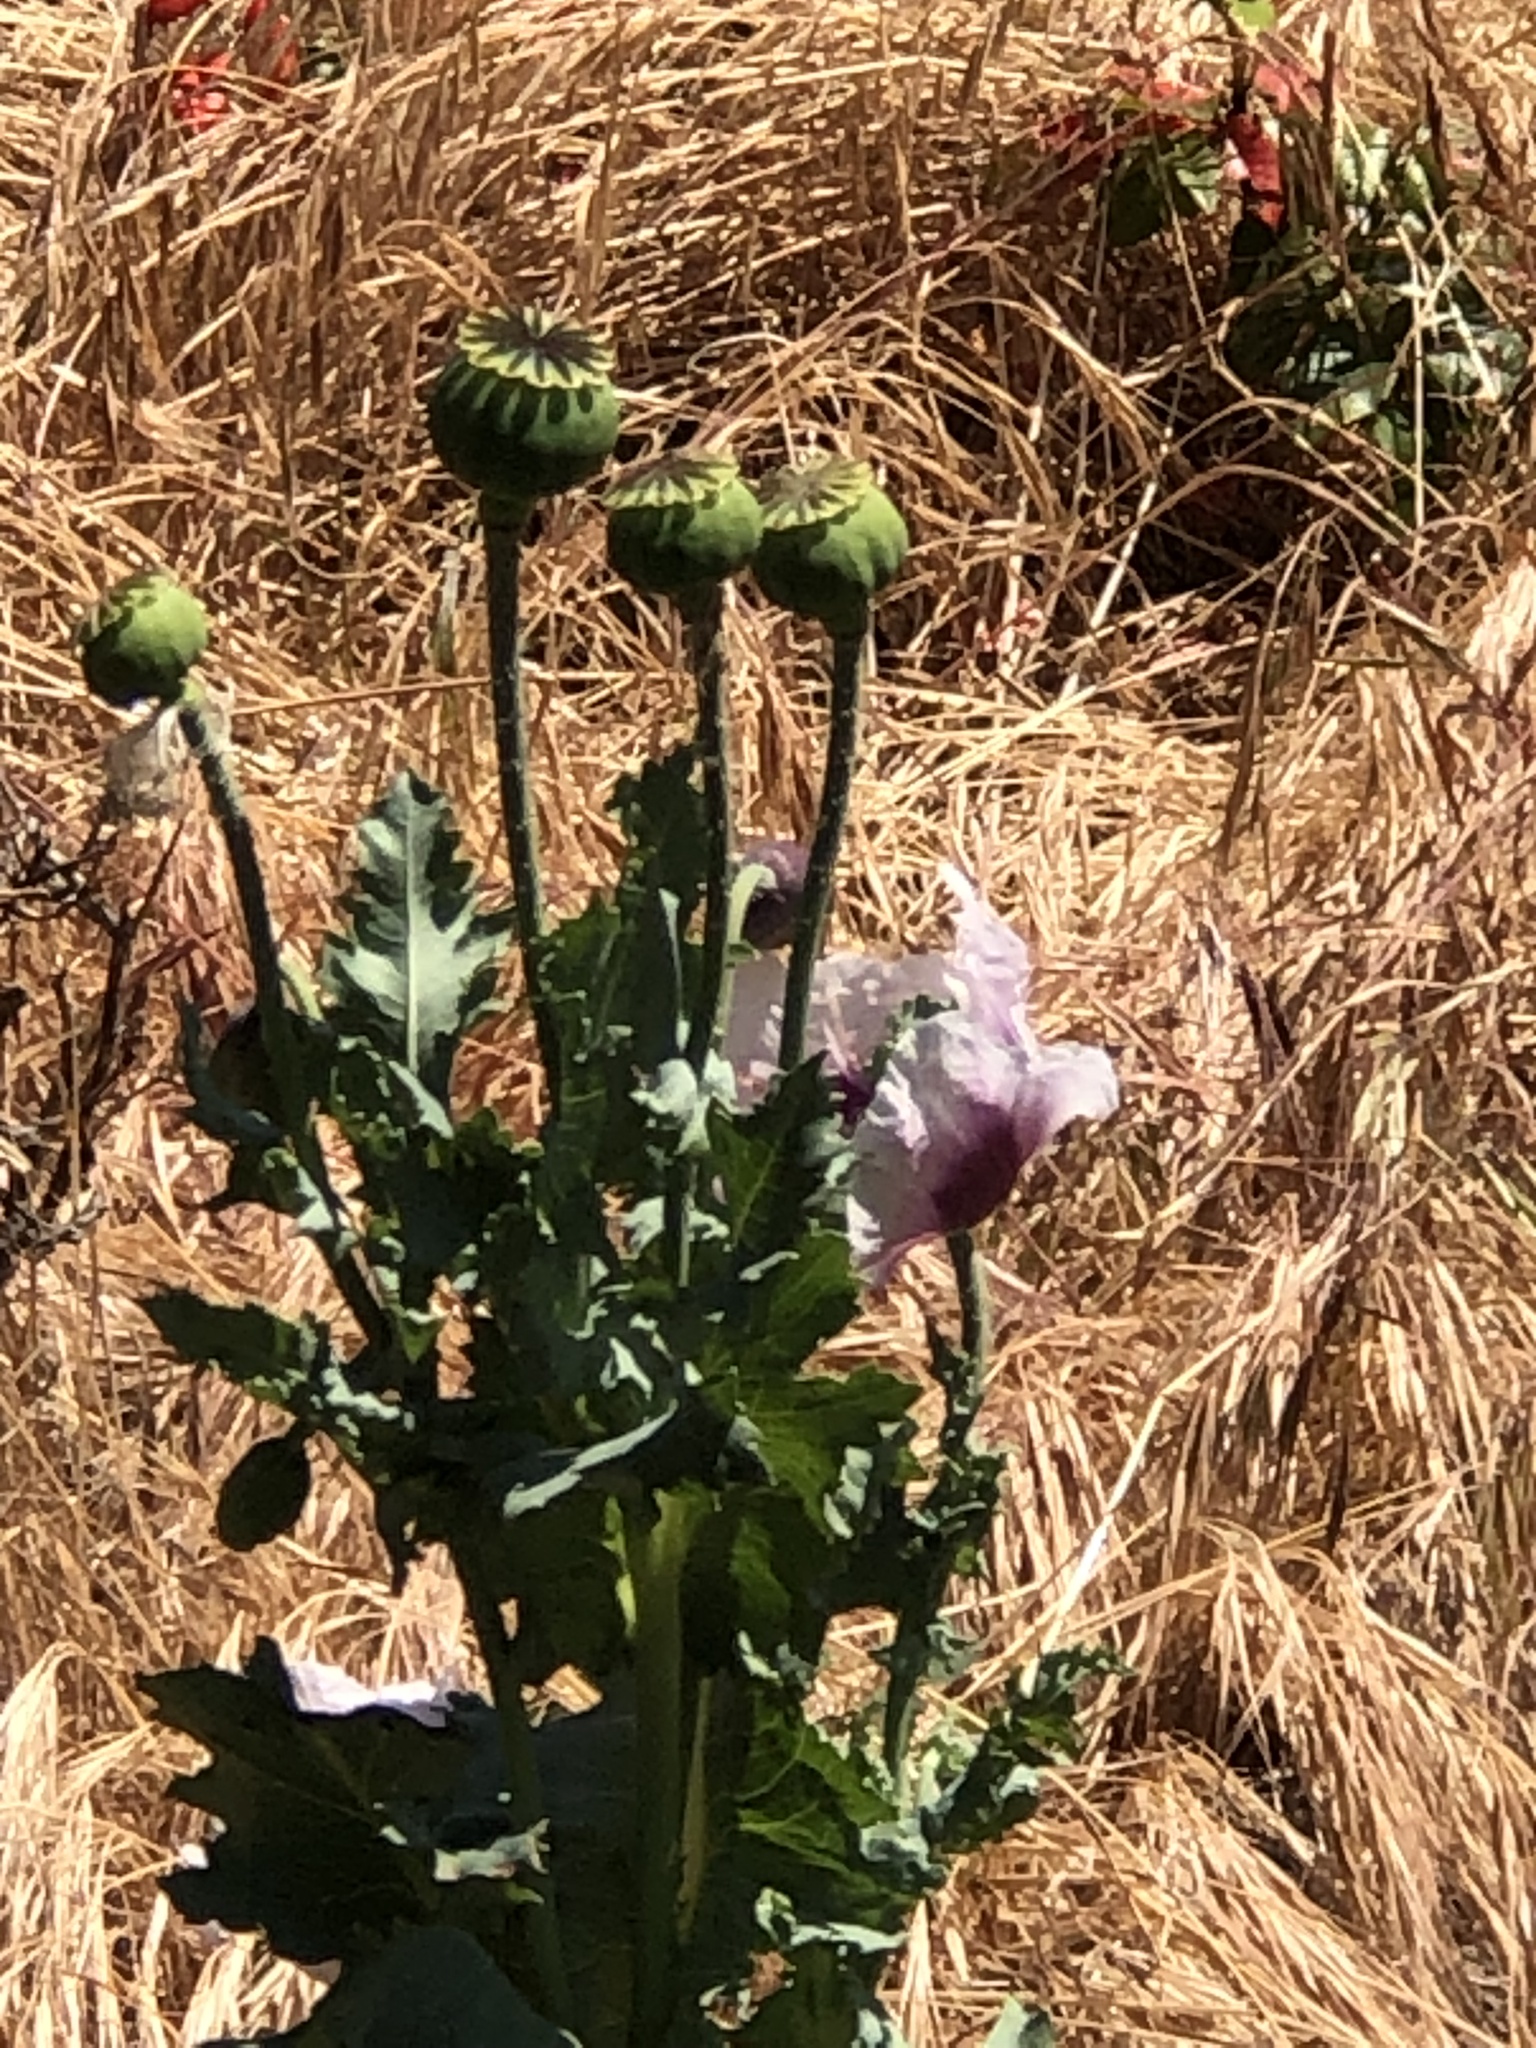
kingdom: Plantae
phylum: Tracheophyta
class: Magnoliopsida
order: Ranunculales
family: Papaveraceae
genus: Papaver
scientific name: Papaver somniferum
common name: Opium poppy
